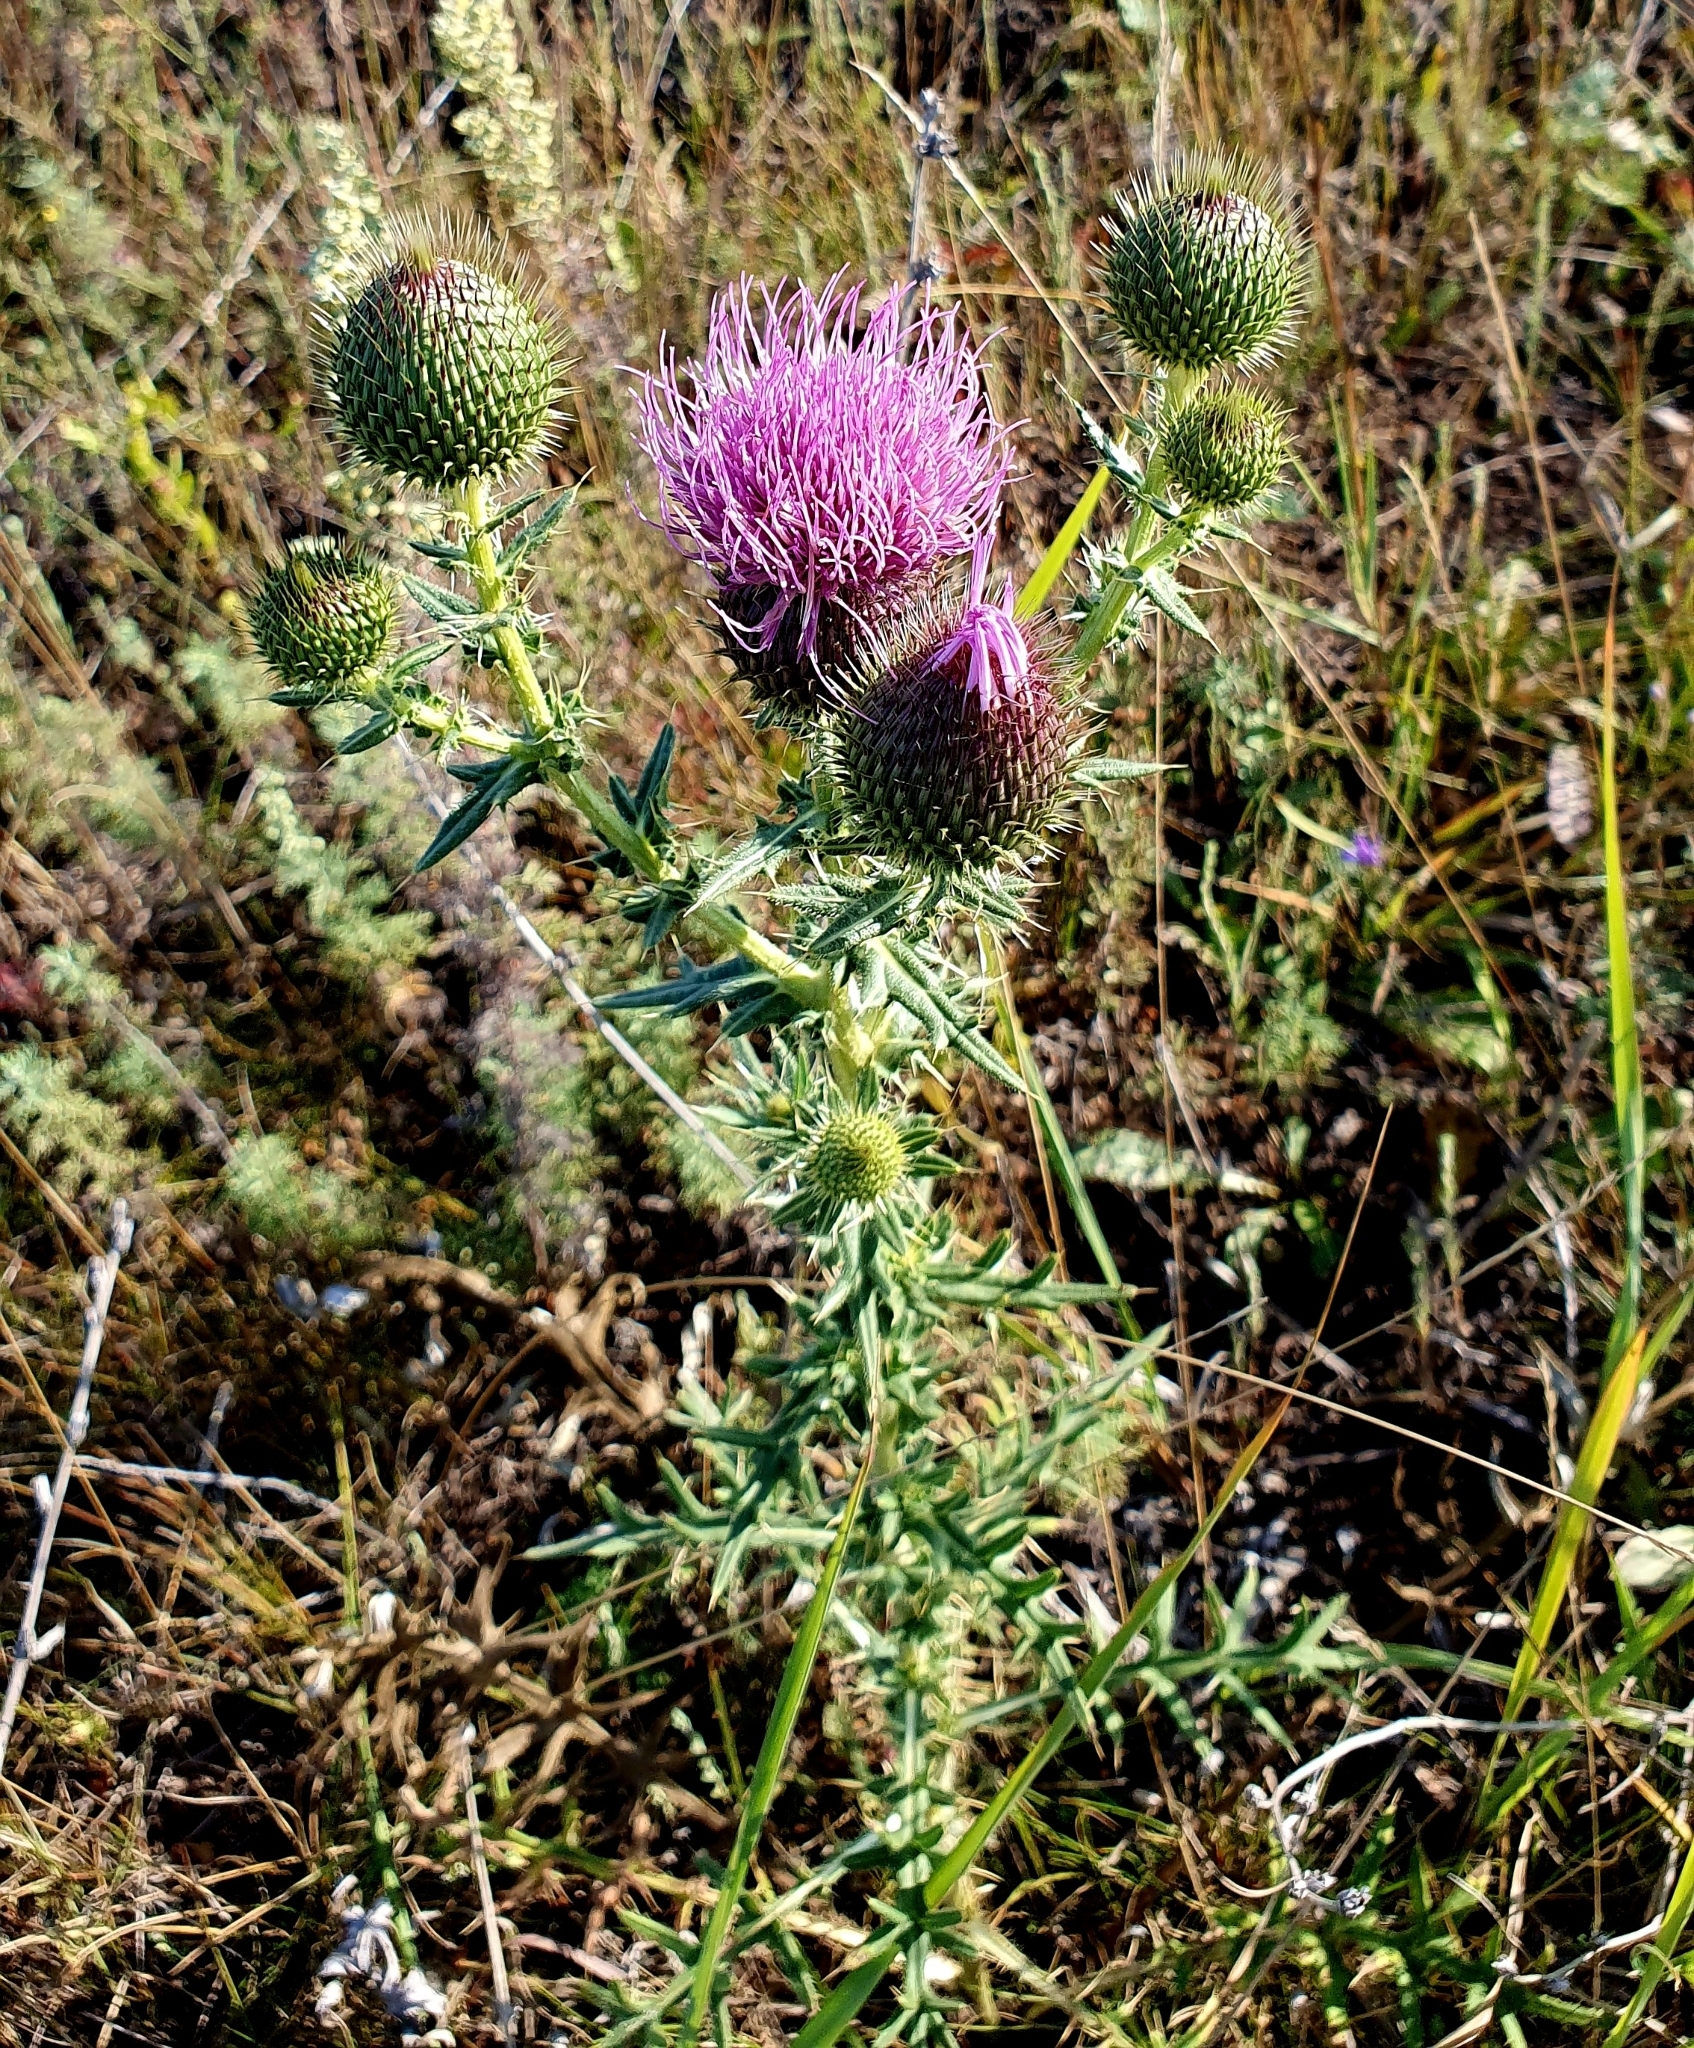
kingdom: Plantae
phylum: Tracheophyta
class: Magnoliopsida
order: Asterales
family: Asteraceae
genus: Cirsium
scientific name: Cirsium serrulatum
